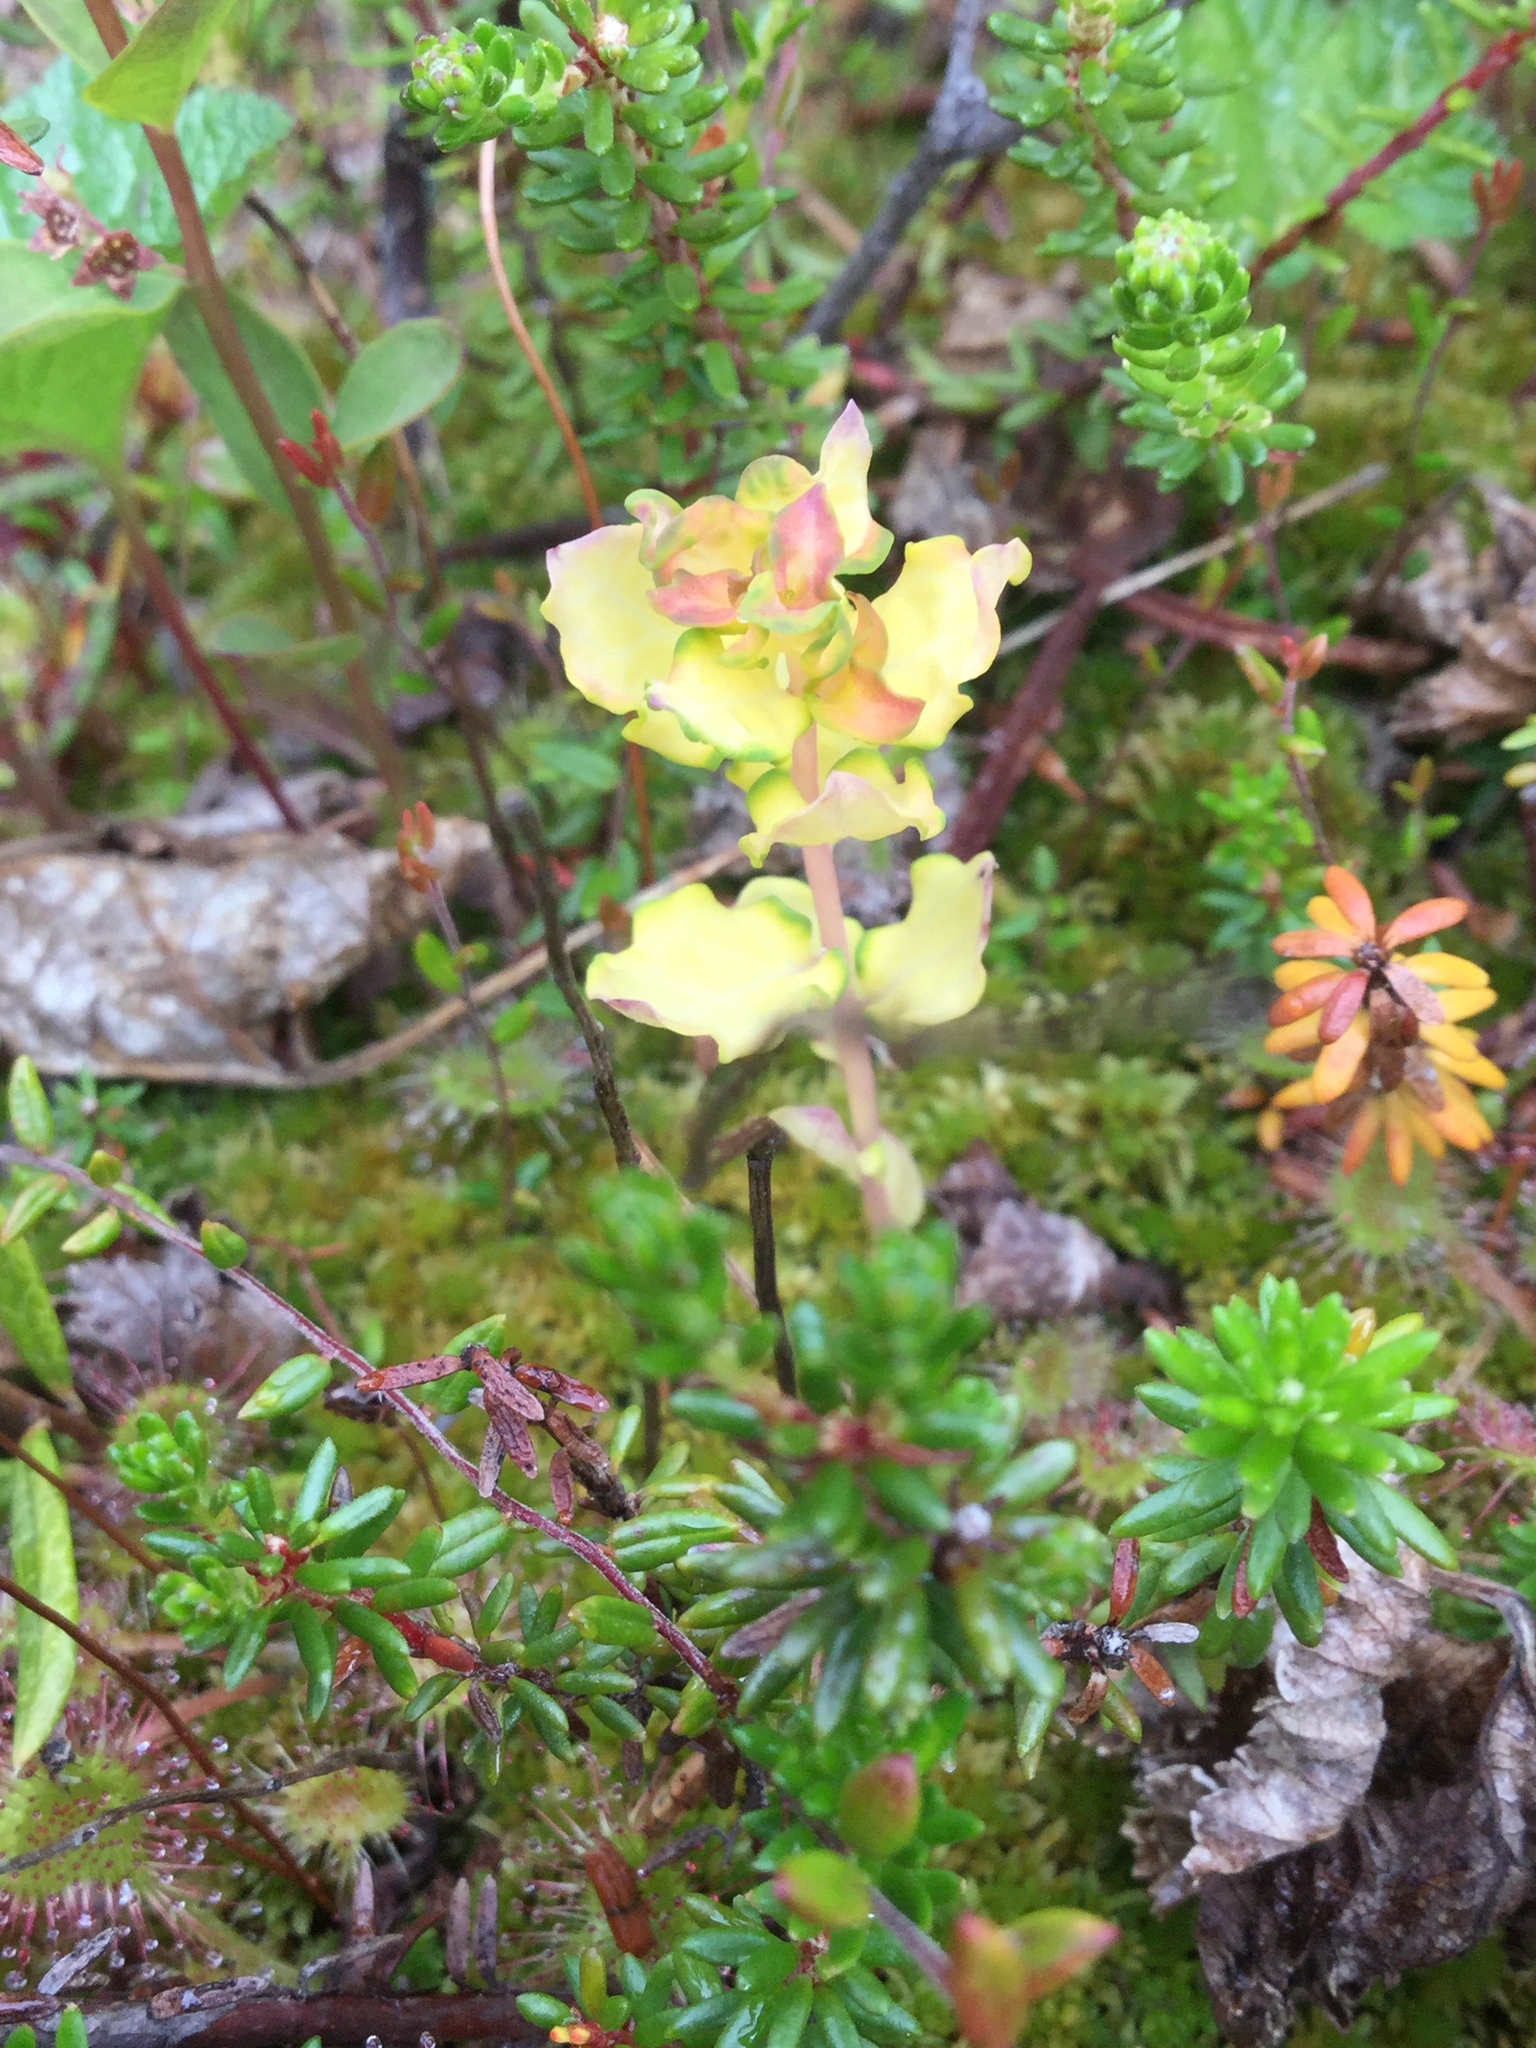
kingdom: Plantae
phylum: Tracheophyta
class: Magnoliopsida
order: Santalales
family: Comandraceae
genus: Geocaulon
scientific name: Geocaulon lividum
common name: Earthberry
